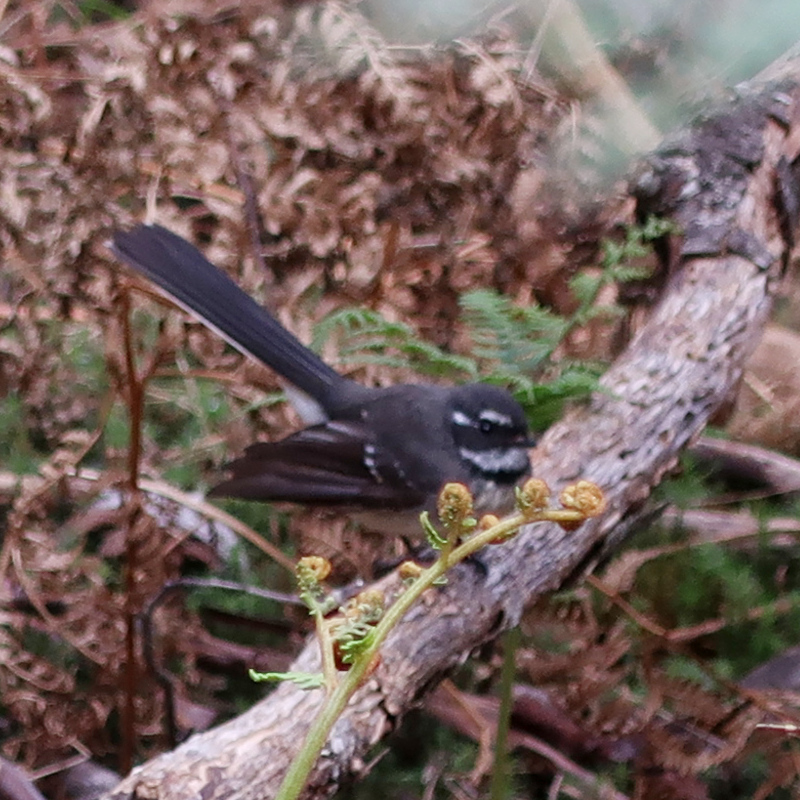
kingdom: Animalia
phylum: Chordata
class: Aves
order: Passeriformes
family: Rhipiduridae
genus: Rhipidura
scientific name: Rhipidura albiscapa
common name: Grey fantail
